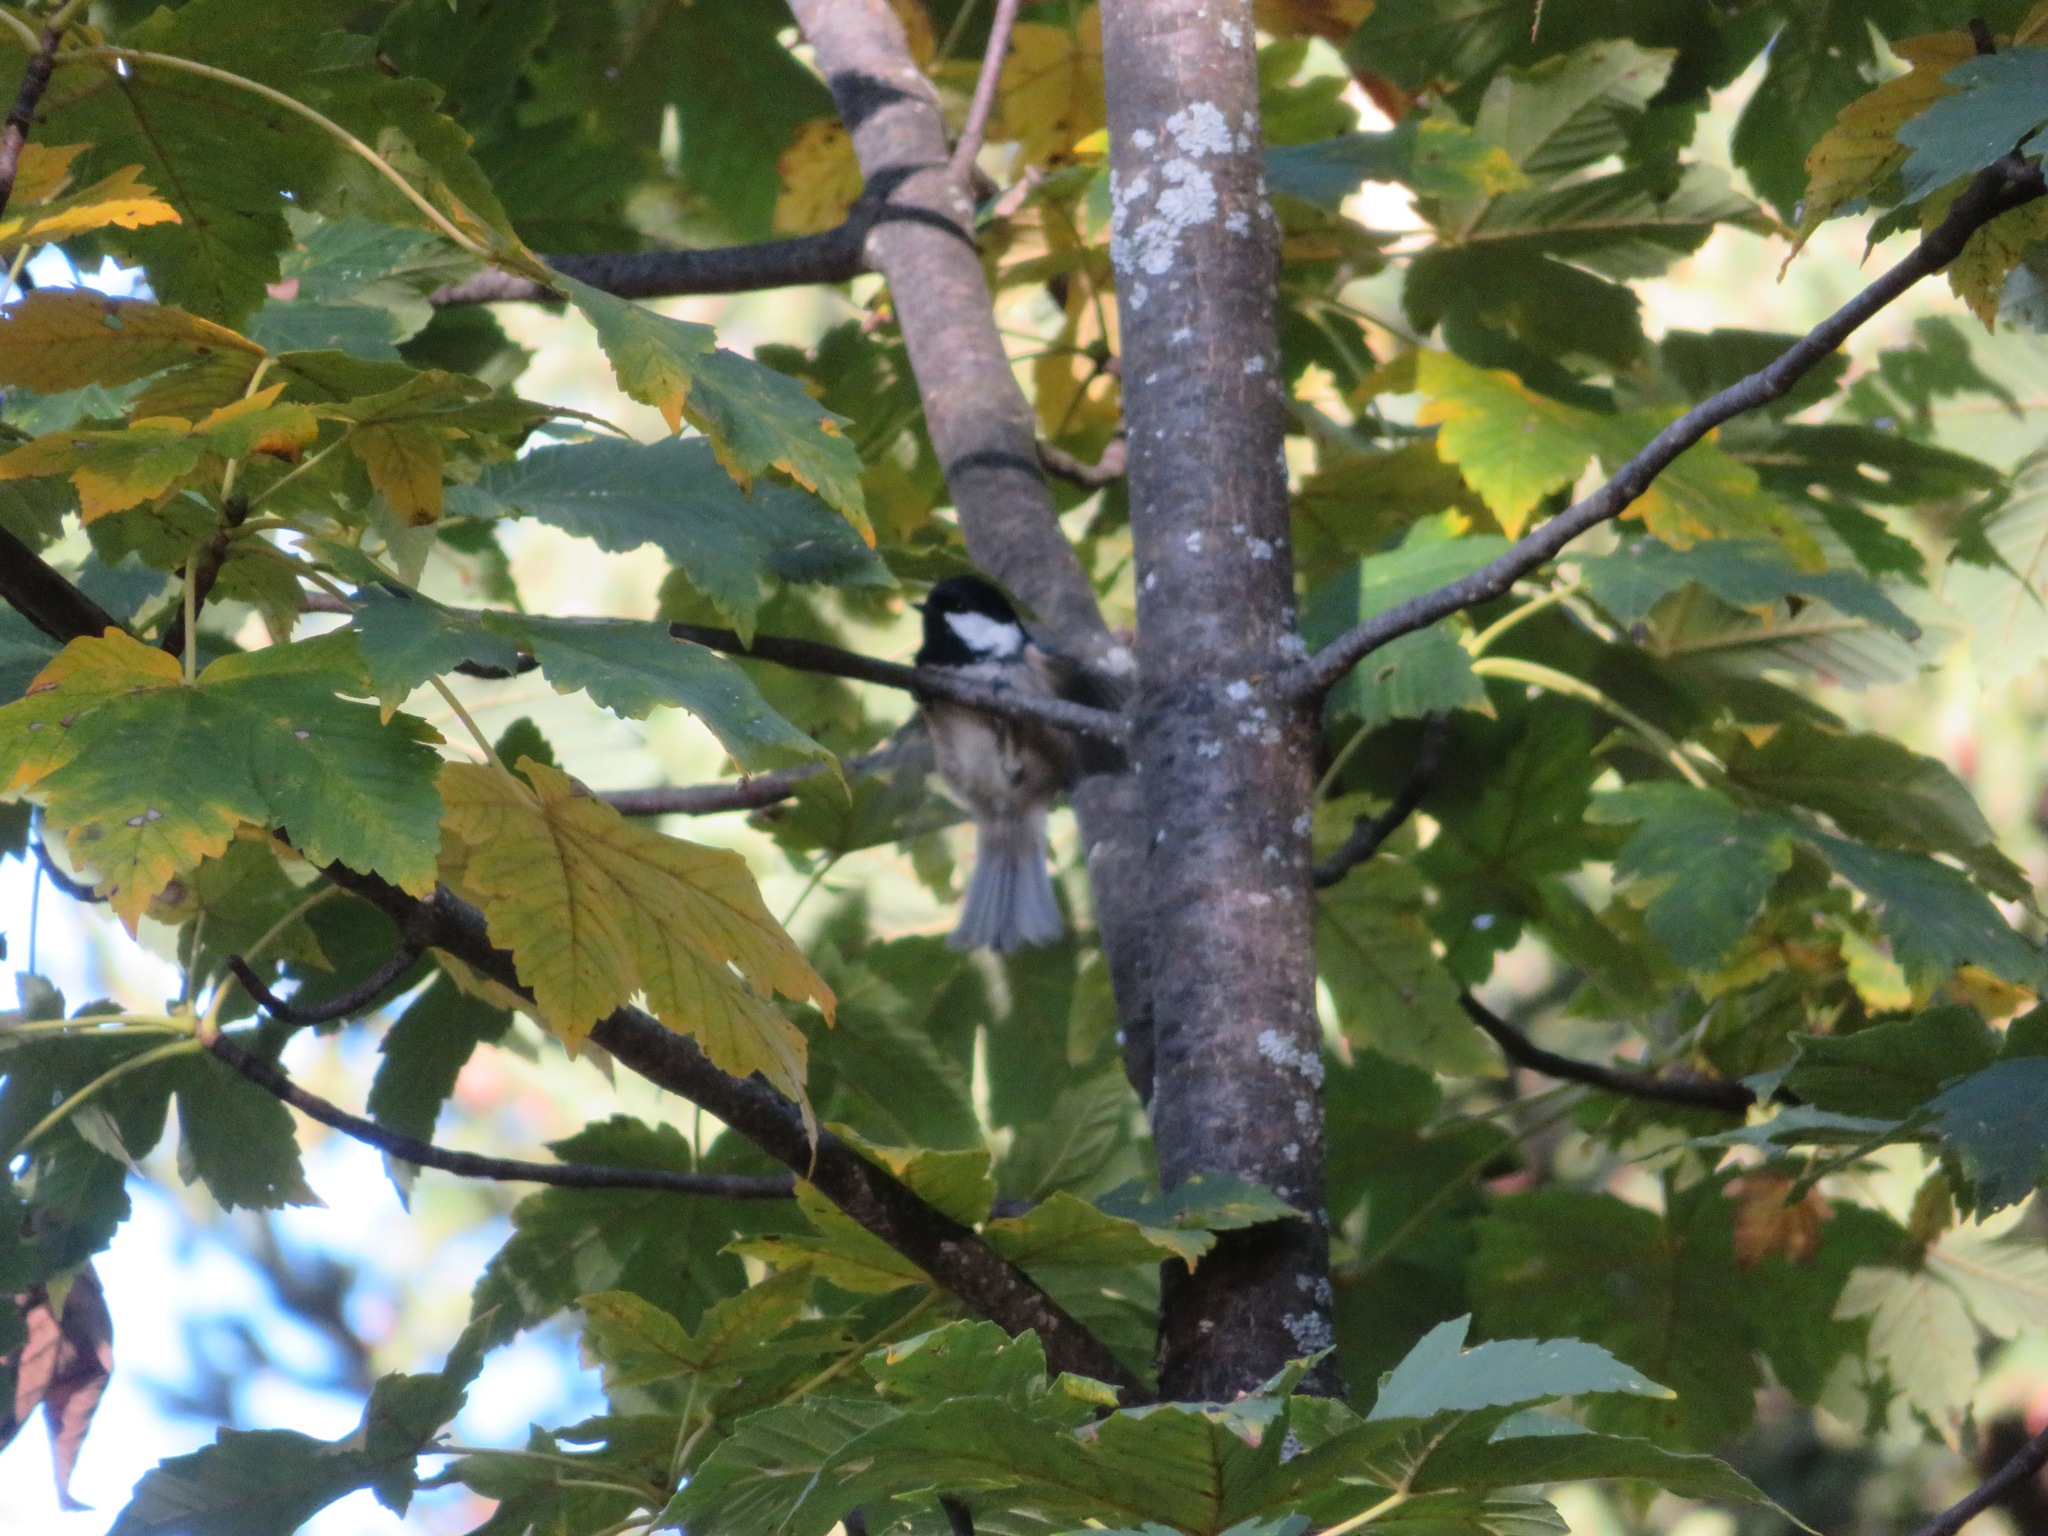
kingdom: Animalia
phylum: Chordata
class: Aves
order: Passeriformes
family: Paridae
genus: Periparus
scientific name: Periparus ater
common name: Coal tit
